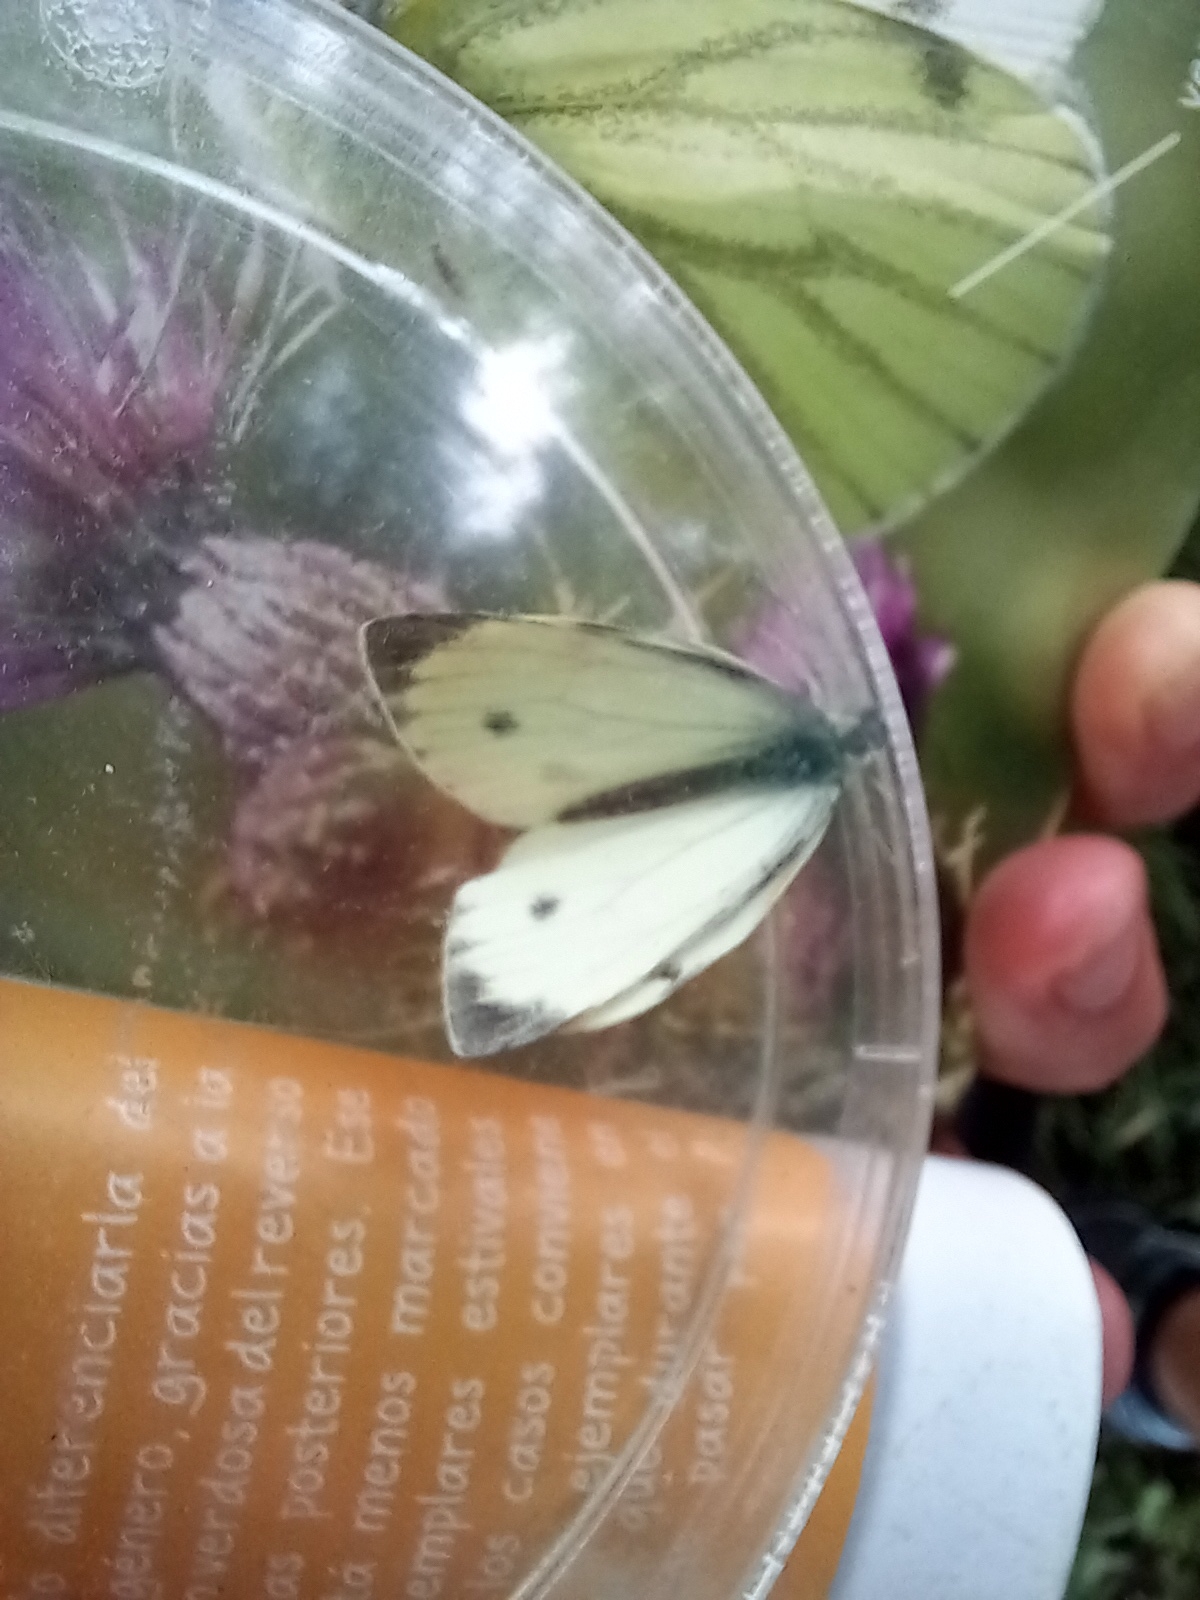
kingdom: Animalia
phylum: Arthropoda
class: Insecta
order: Lepidoptera
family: Pieridae
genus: Pieris
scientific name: Pieris napi
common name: Green-veined white
